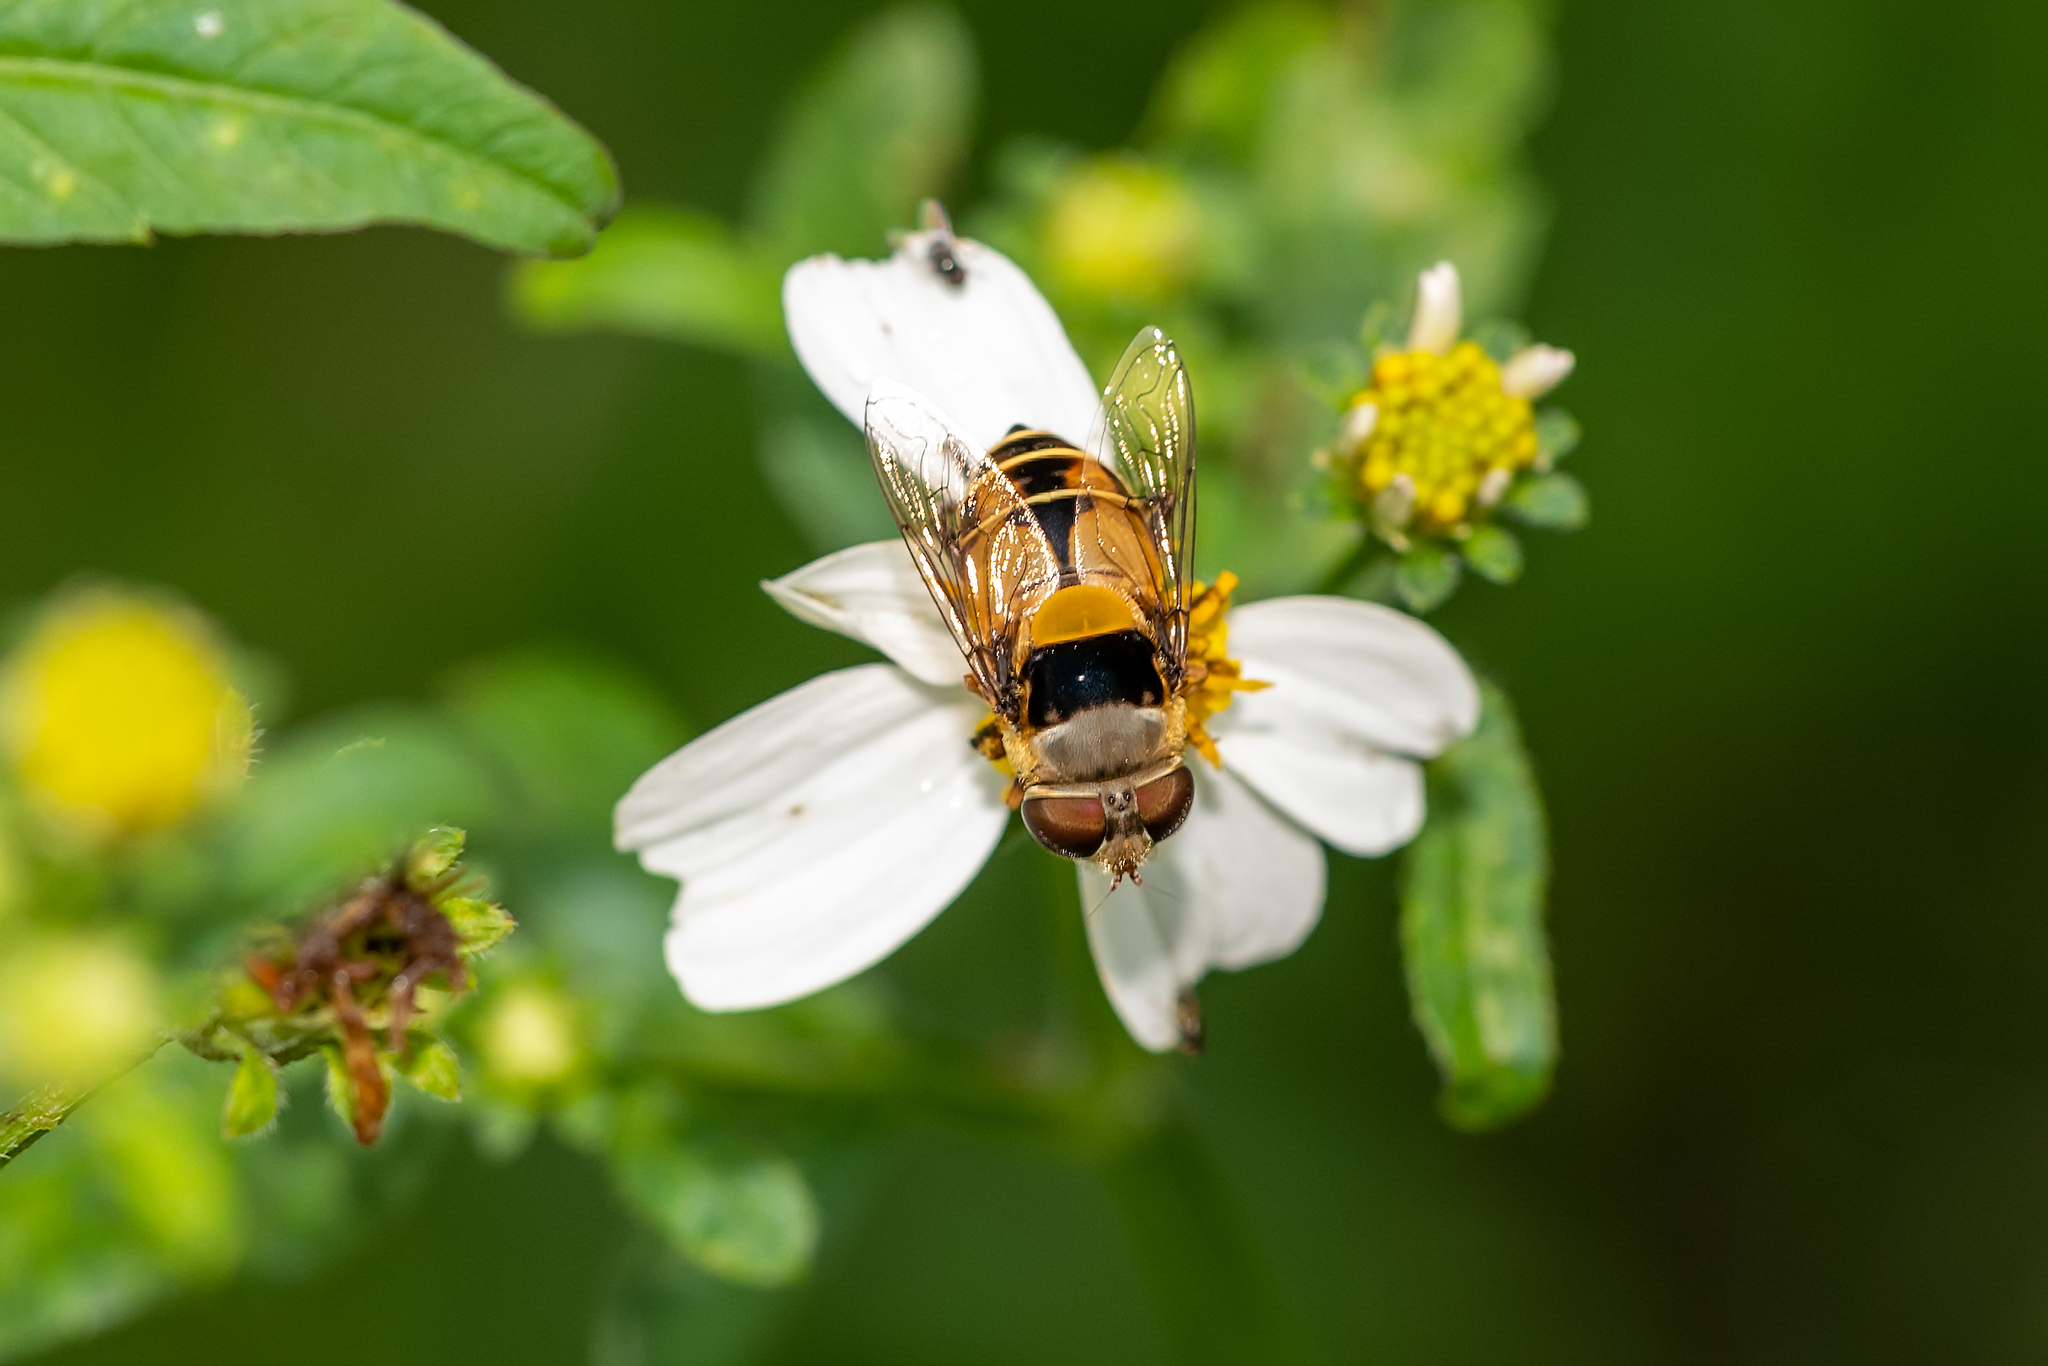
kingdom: Animalia
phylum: Arthropoda
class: Insecta
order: Diptera
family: Syrphidae
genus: Palpada
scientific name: Palpada pusilla
